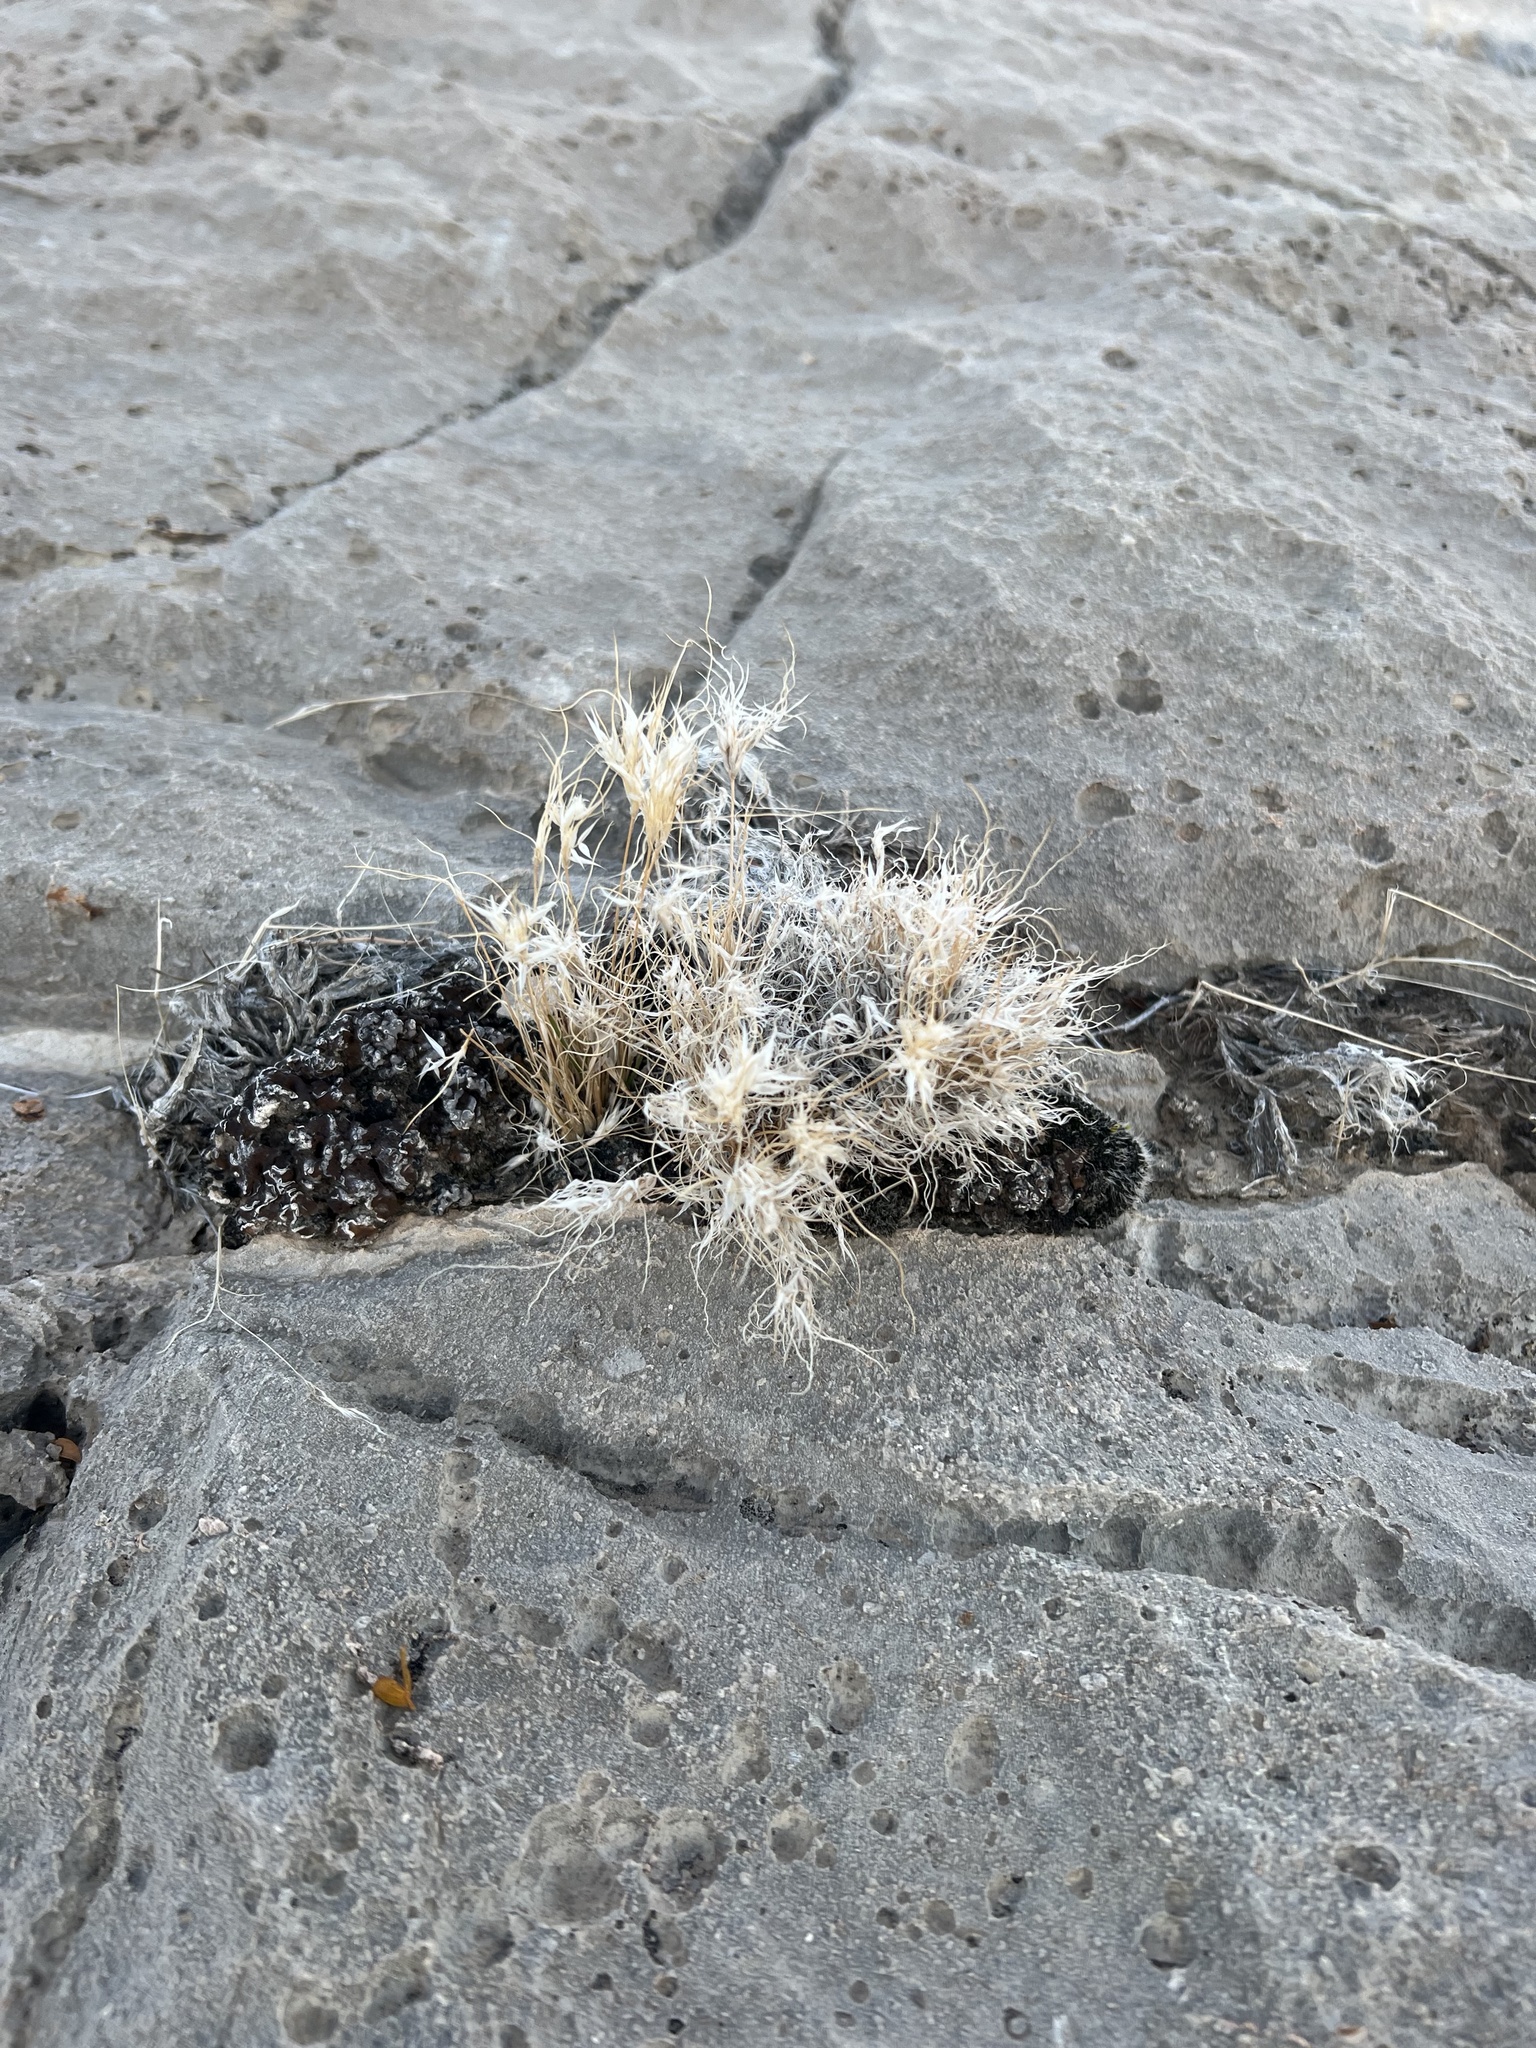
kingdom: Plantae
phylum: Tracheophyta
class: Liliopsida
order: Poales
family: Poaceae
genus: Dasyochloa
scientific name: Dasyochloa pulchella
